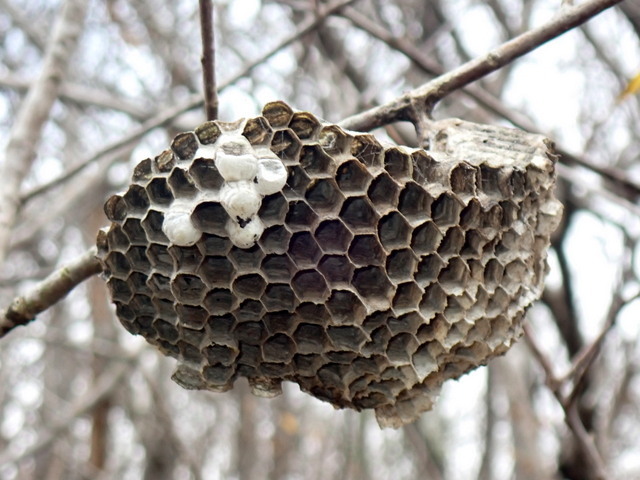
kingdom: Animalia
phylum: Arthropoda
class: Insecta
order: Hymenoptera
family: Vespidae
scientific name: Vespidae
